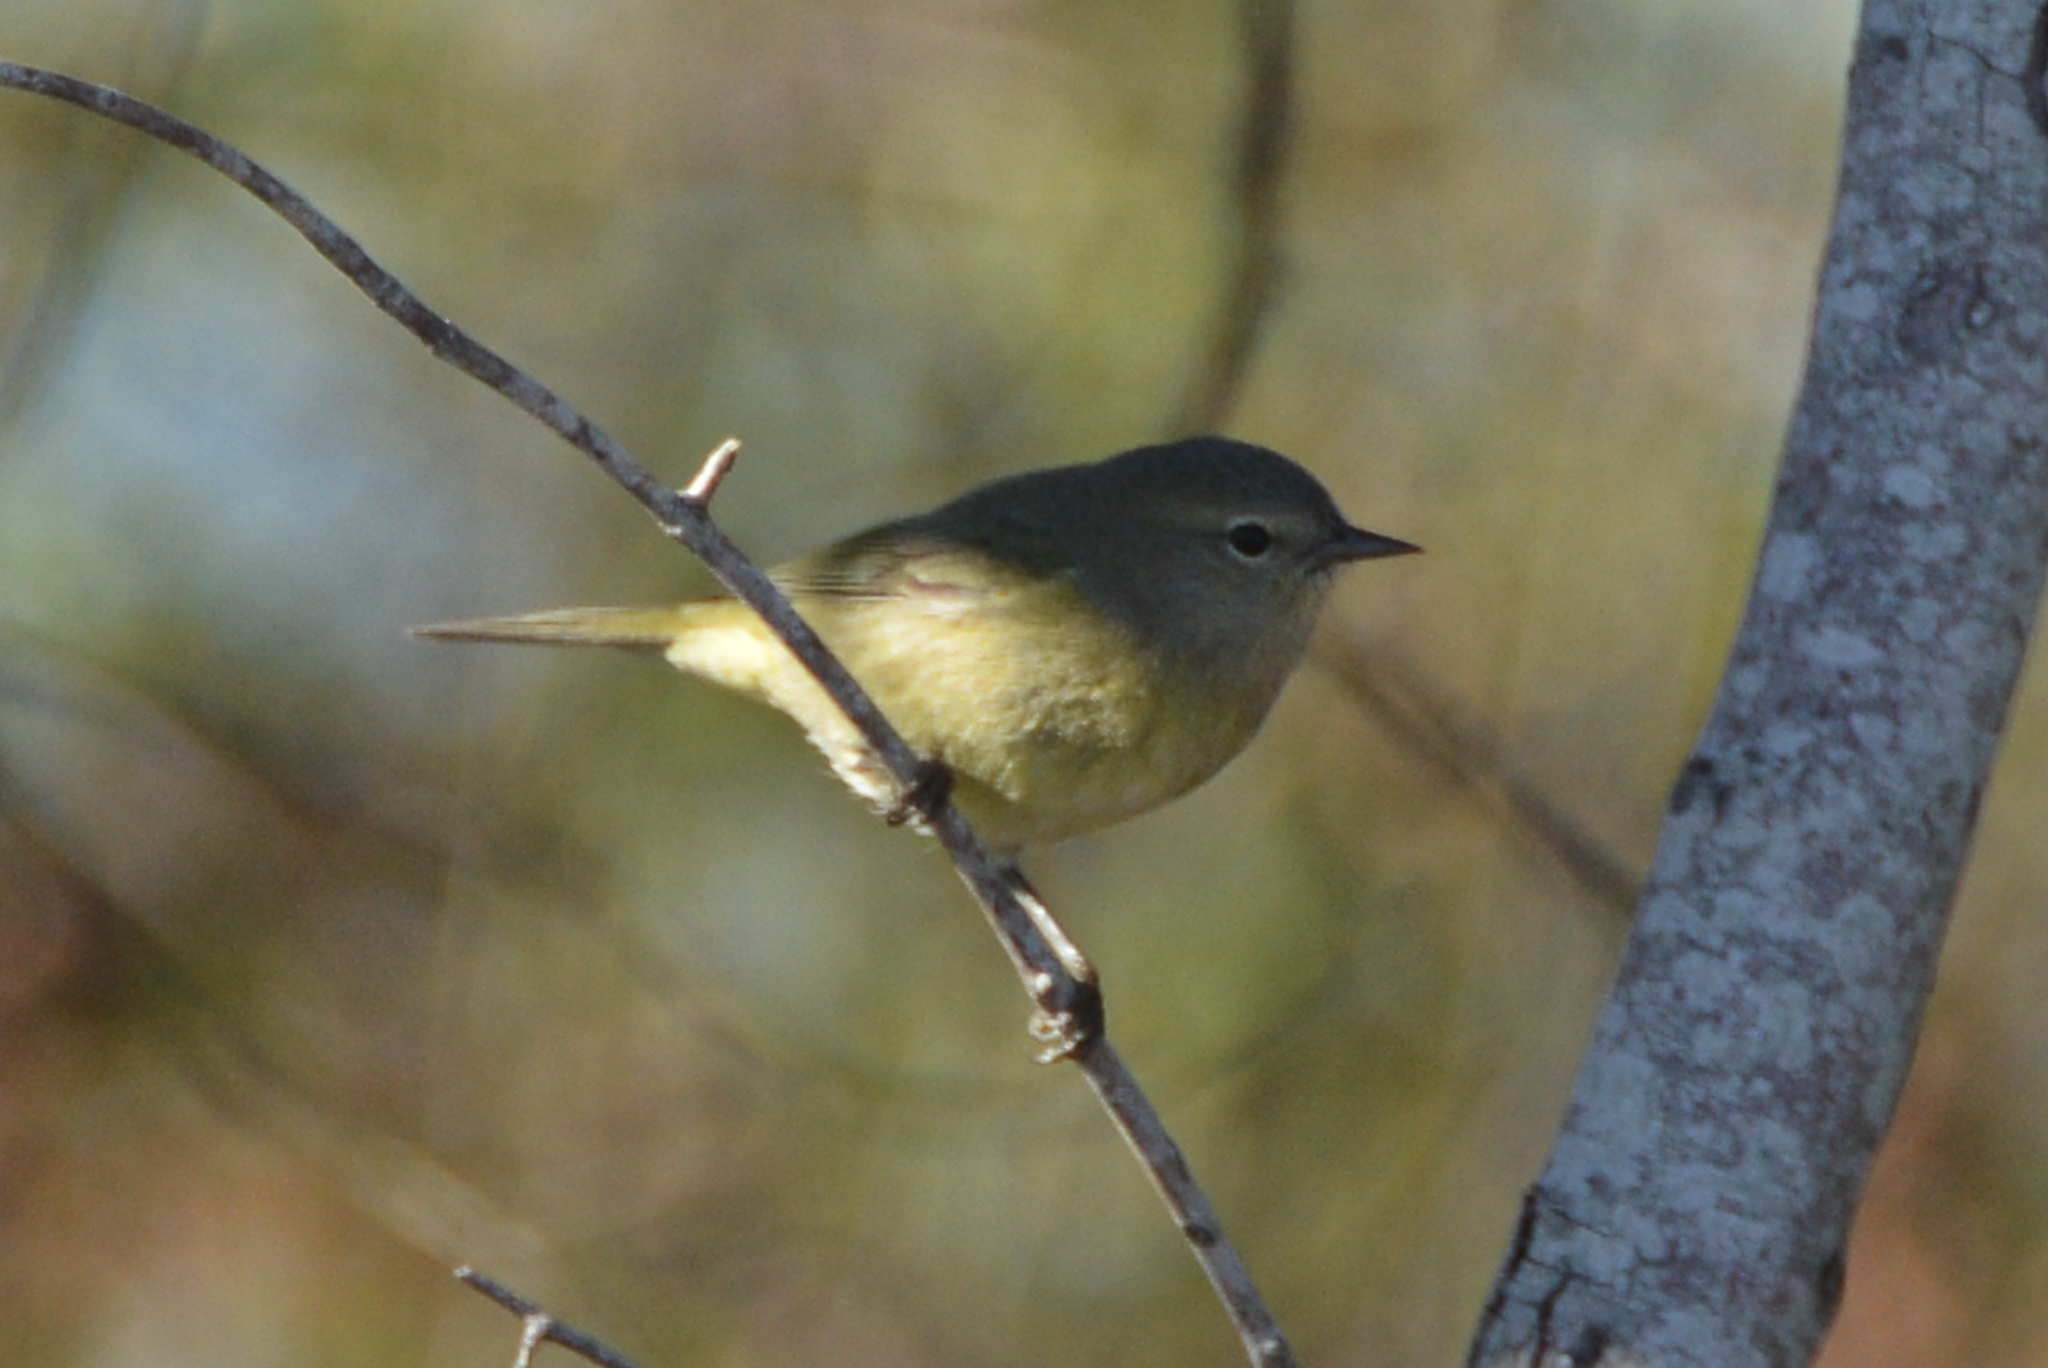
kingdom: Animalia
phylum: Chordata
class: Aves
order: Passeriformes
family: Parulidae
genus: Leiothlypis
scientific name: Leiothlypis celata
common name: Orange-crowned warbler
